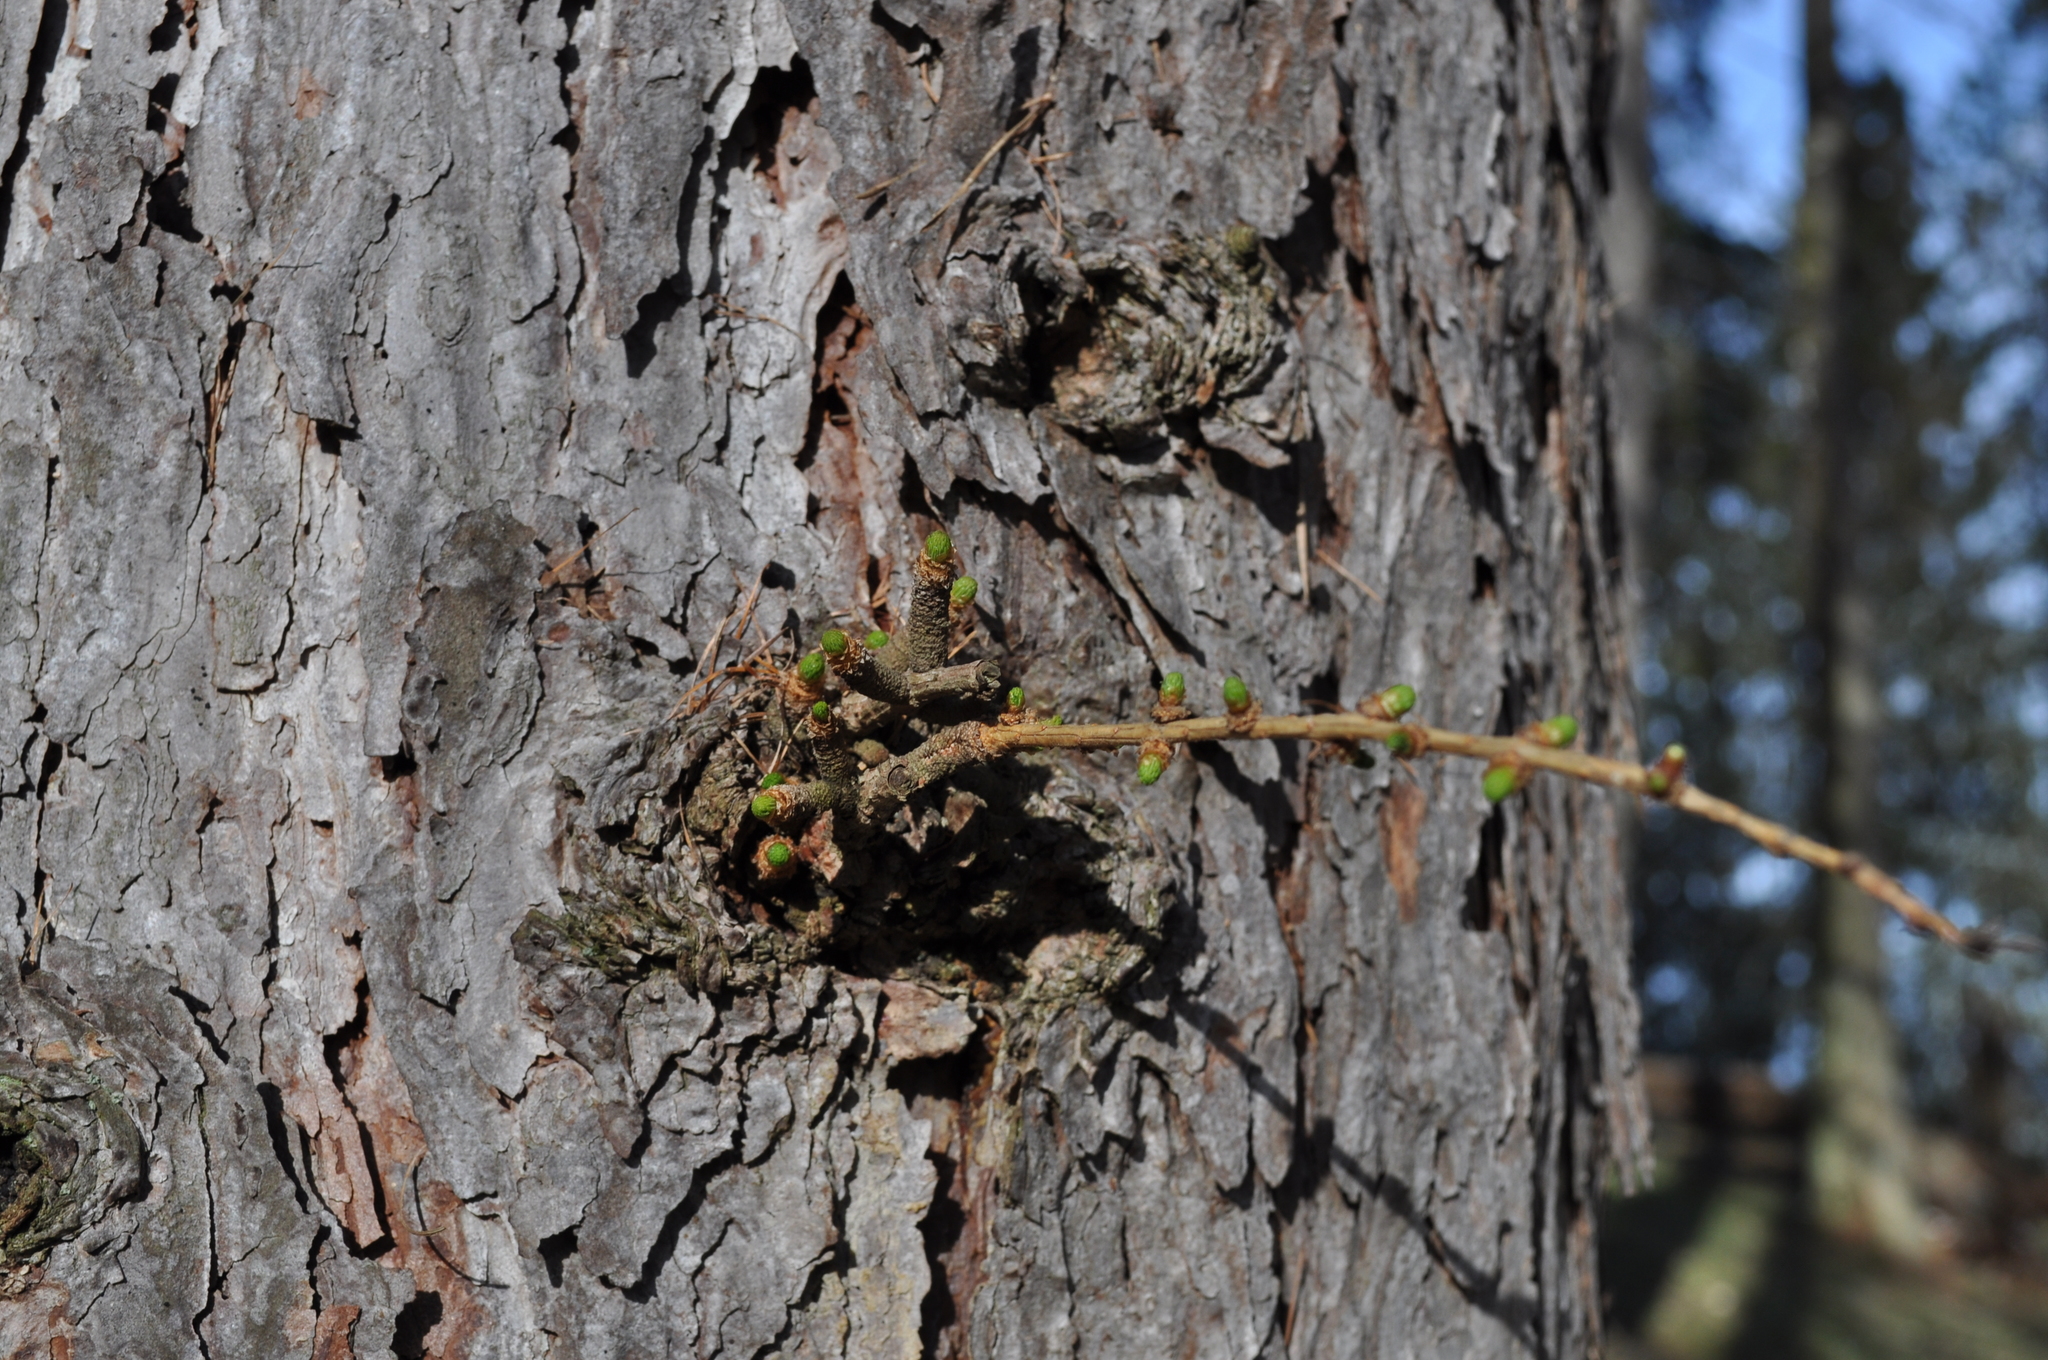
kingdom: Plantae
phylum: Tracheophyta
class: Pinopsida
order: Pinales
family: Pinaceae
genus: Larix
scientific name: Larix decidua
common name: European larch
